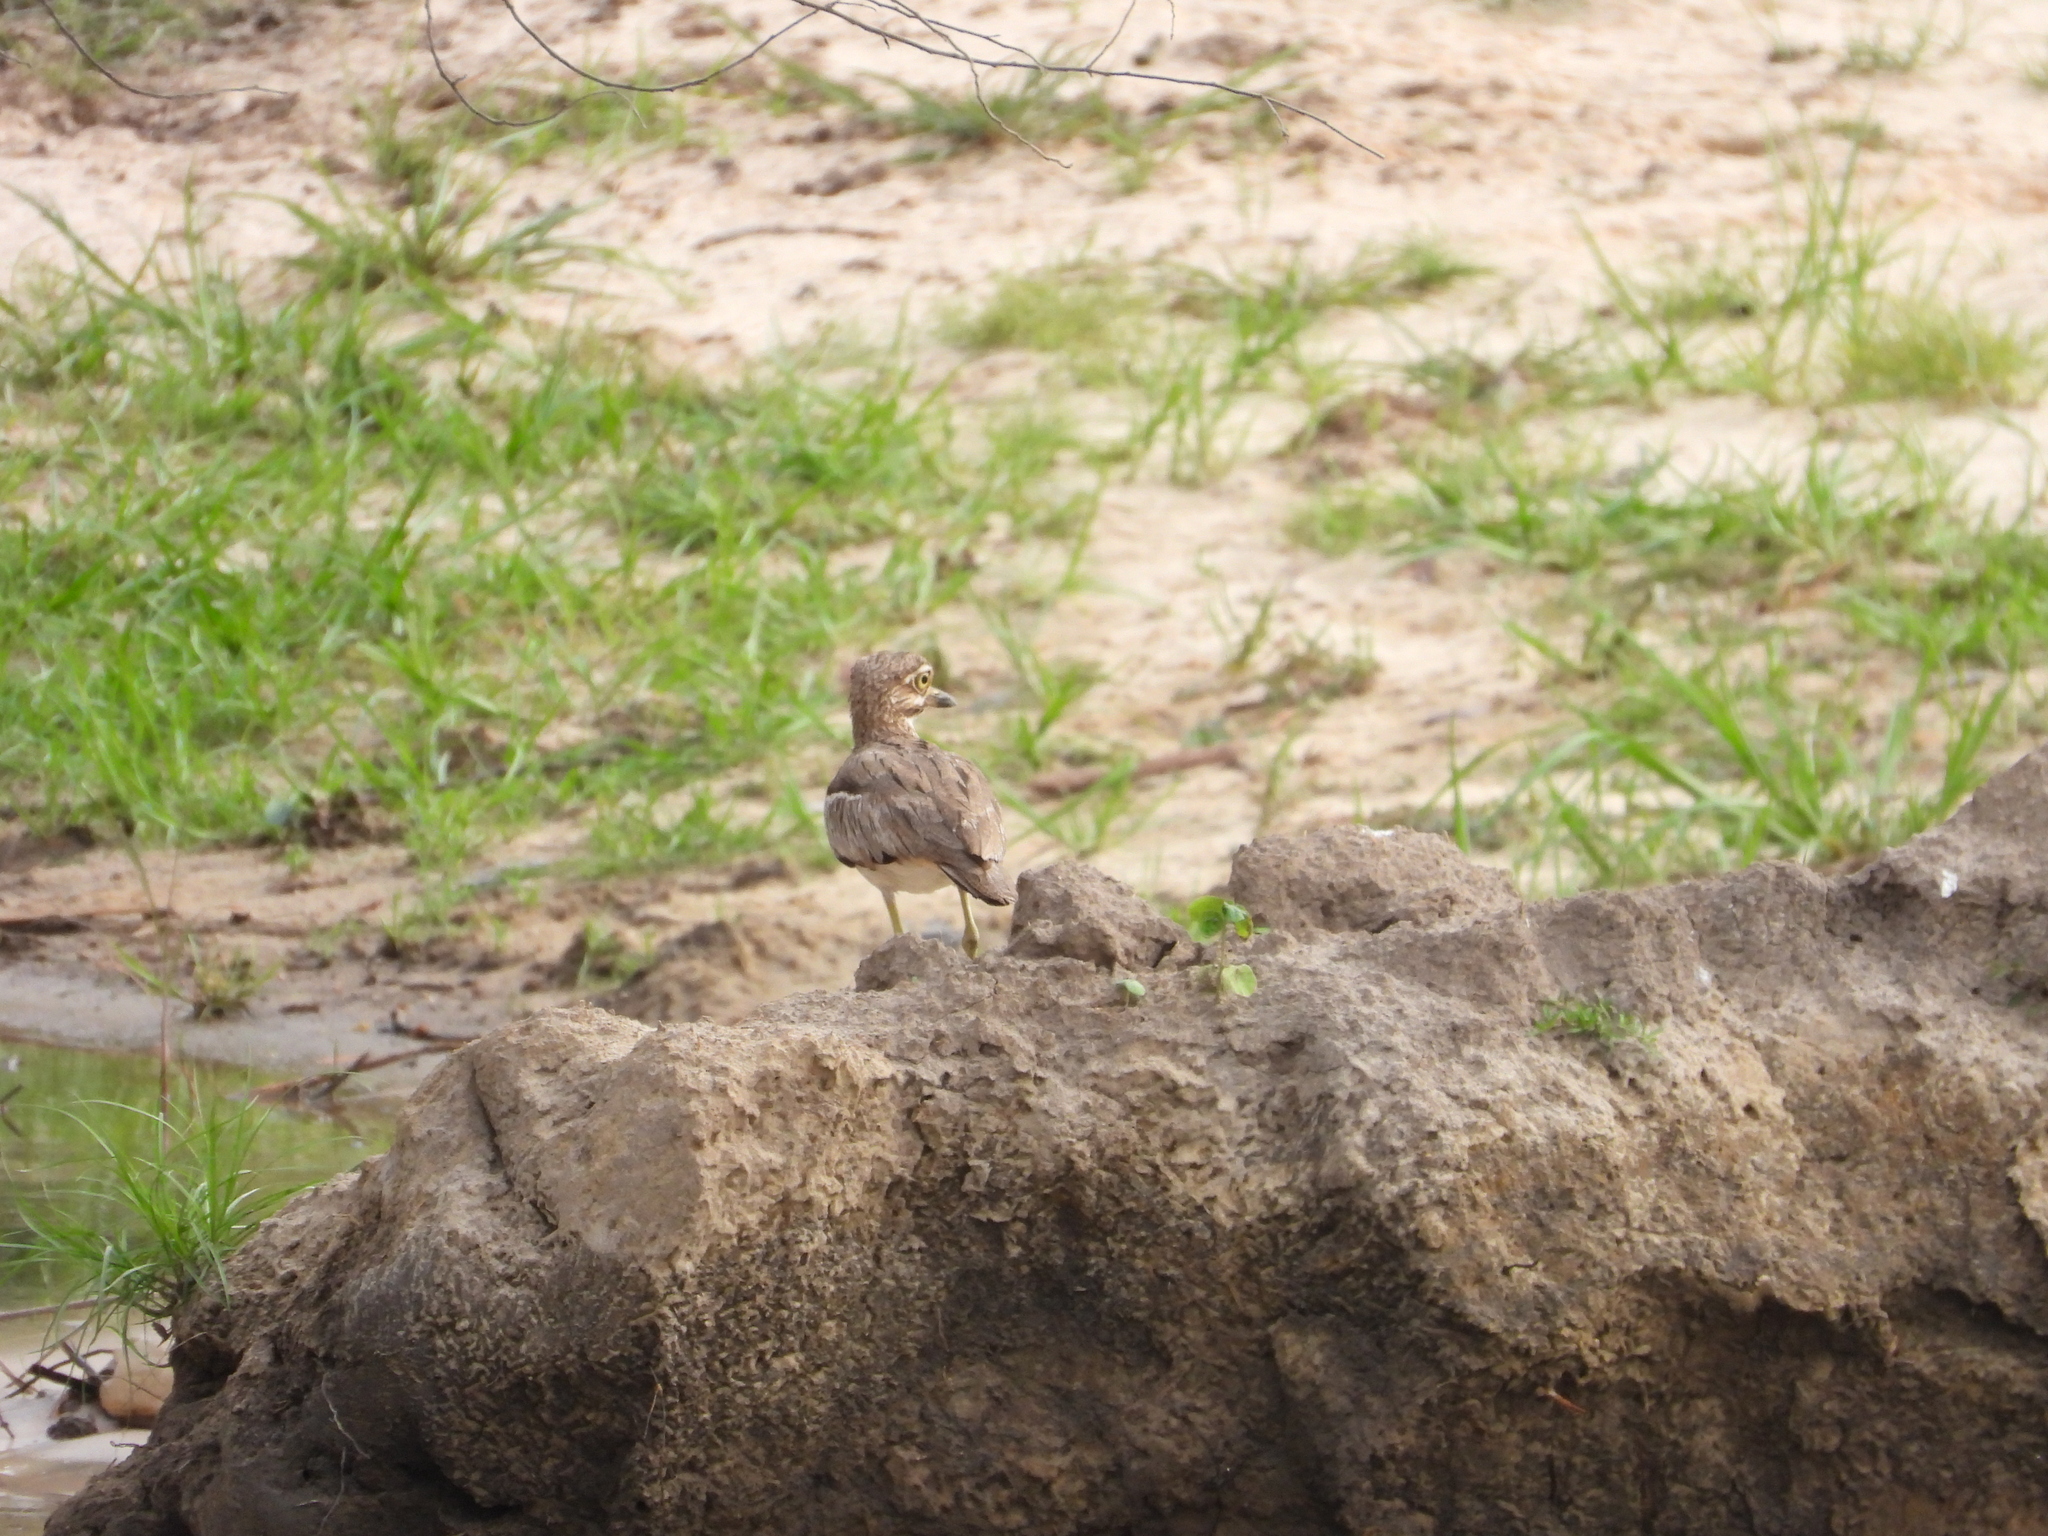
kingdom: Animalia
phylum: Chordata
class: Aves
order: Charadriiformes
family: Burhinidae
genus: Burhinus
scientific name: Burhinus vermiculatus
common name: Water thick-knee
